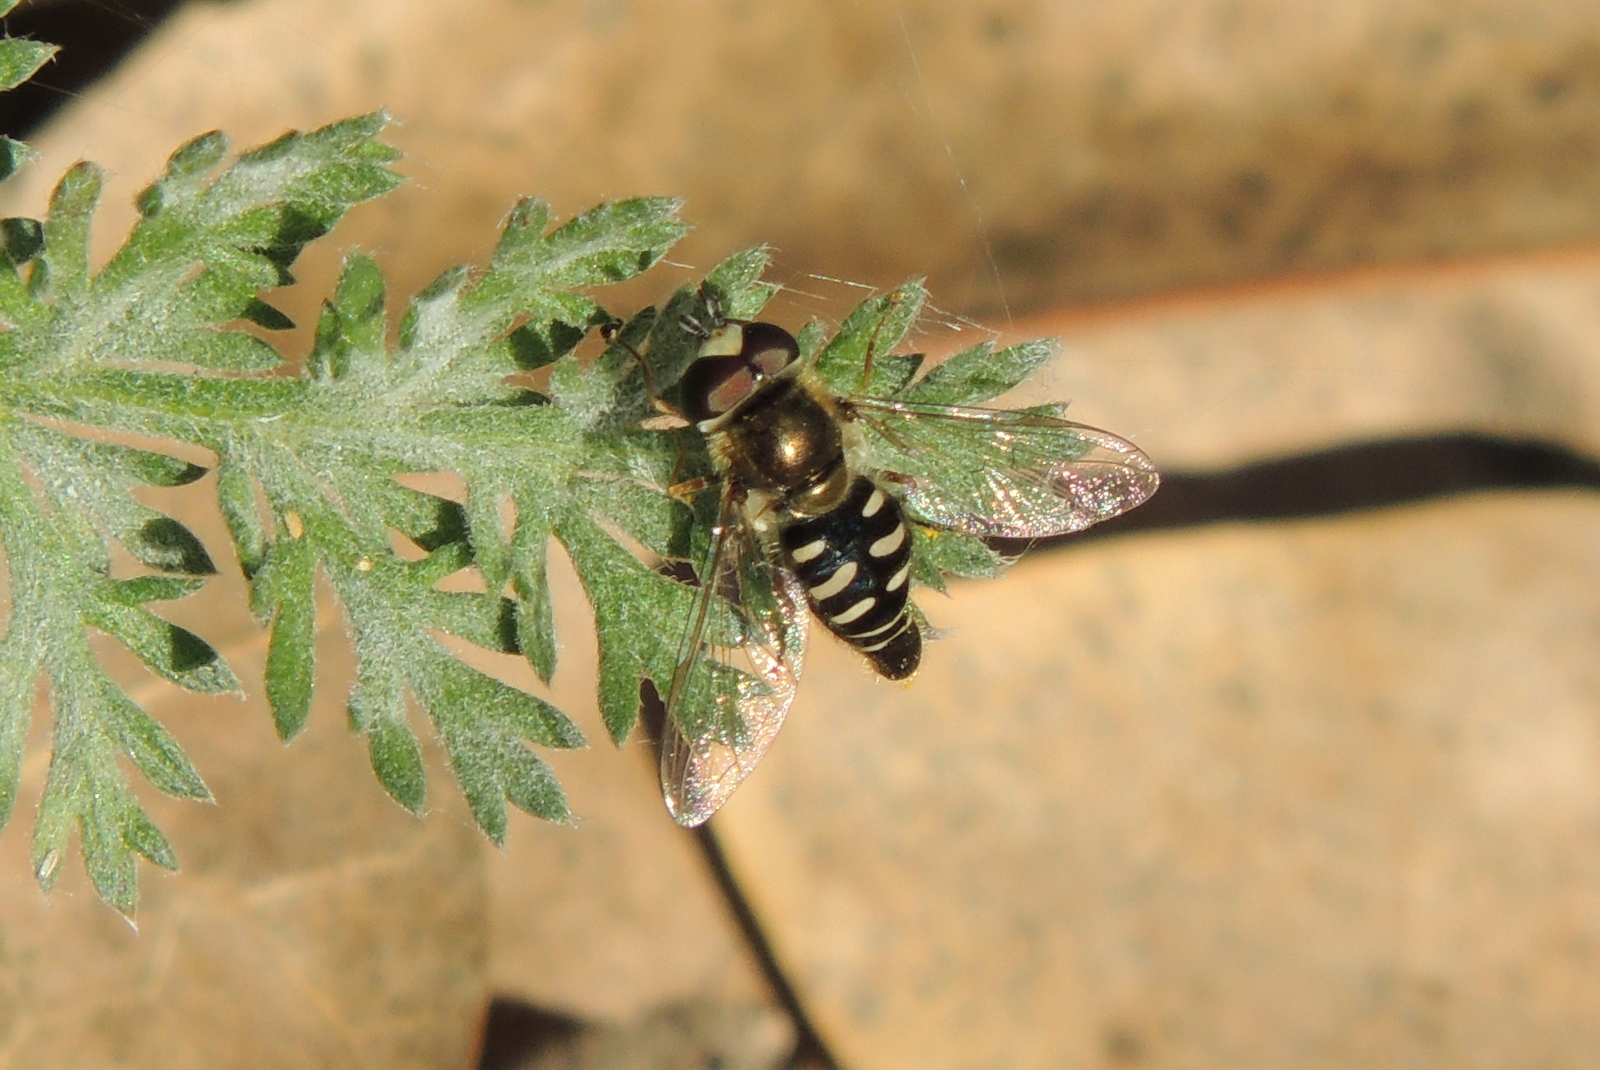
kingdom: Animalia
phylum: Arthropoda
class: Insecta
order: Diptera
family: Syrphidae
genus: Eupeodes
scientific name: Eupeodes volucris
